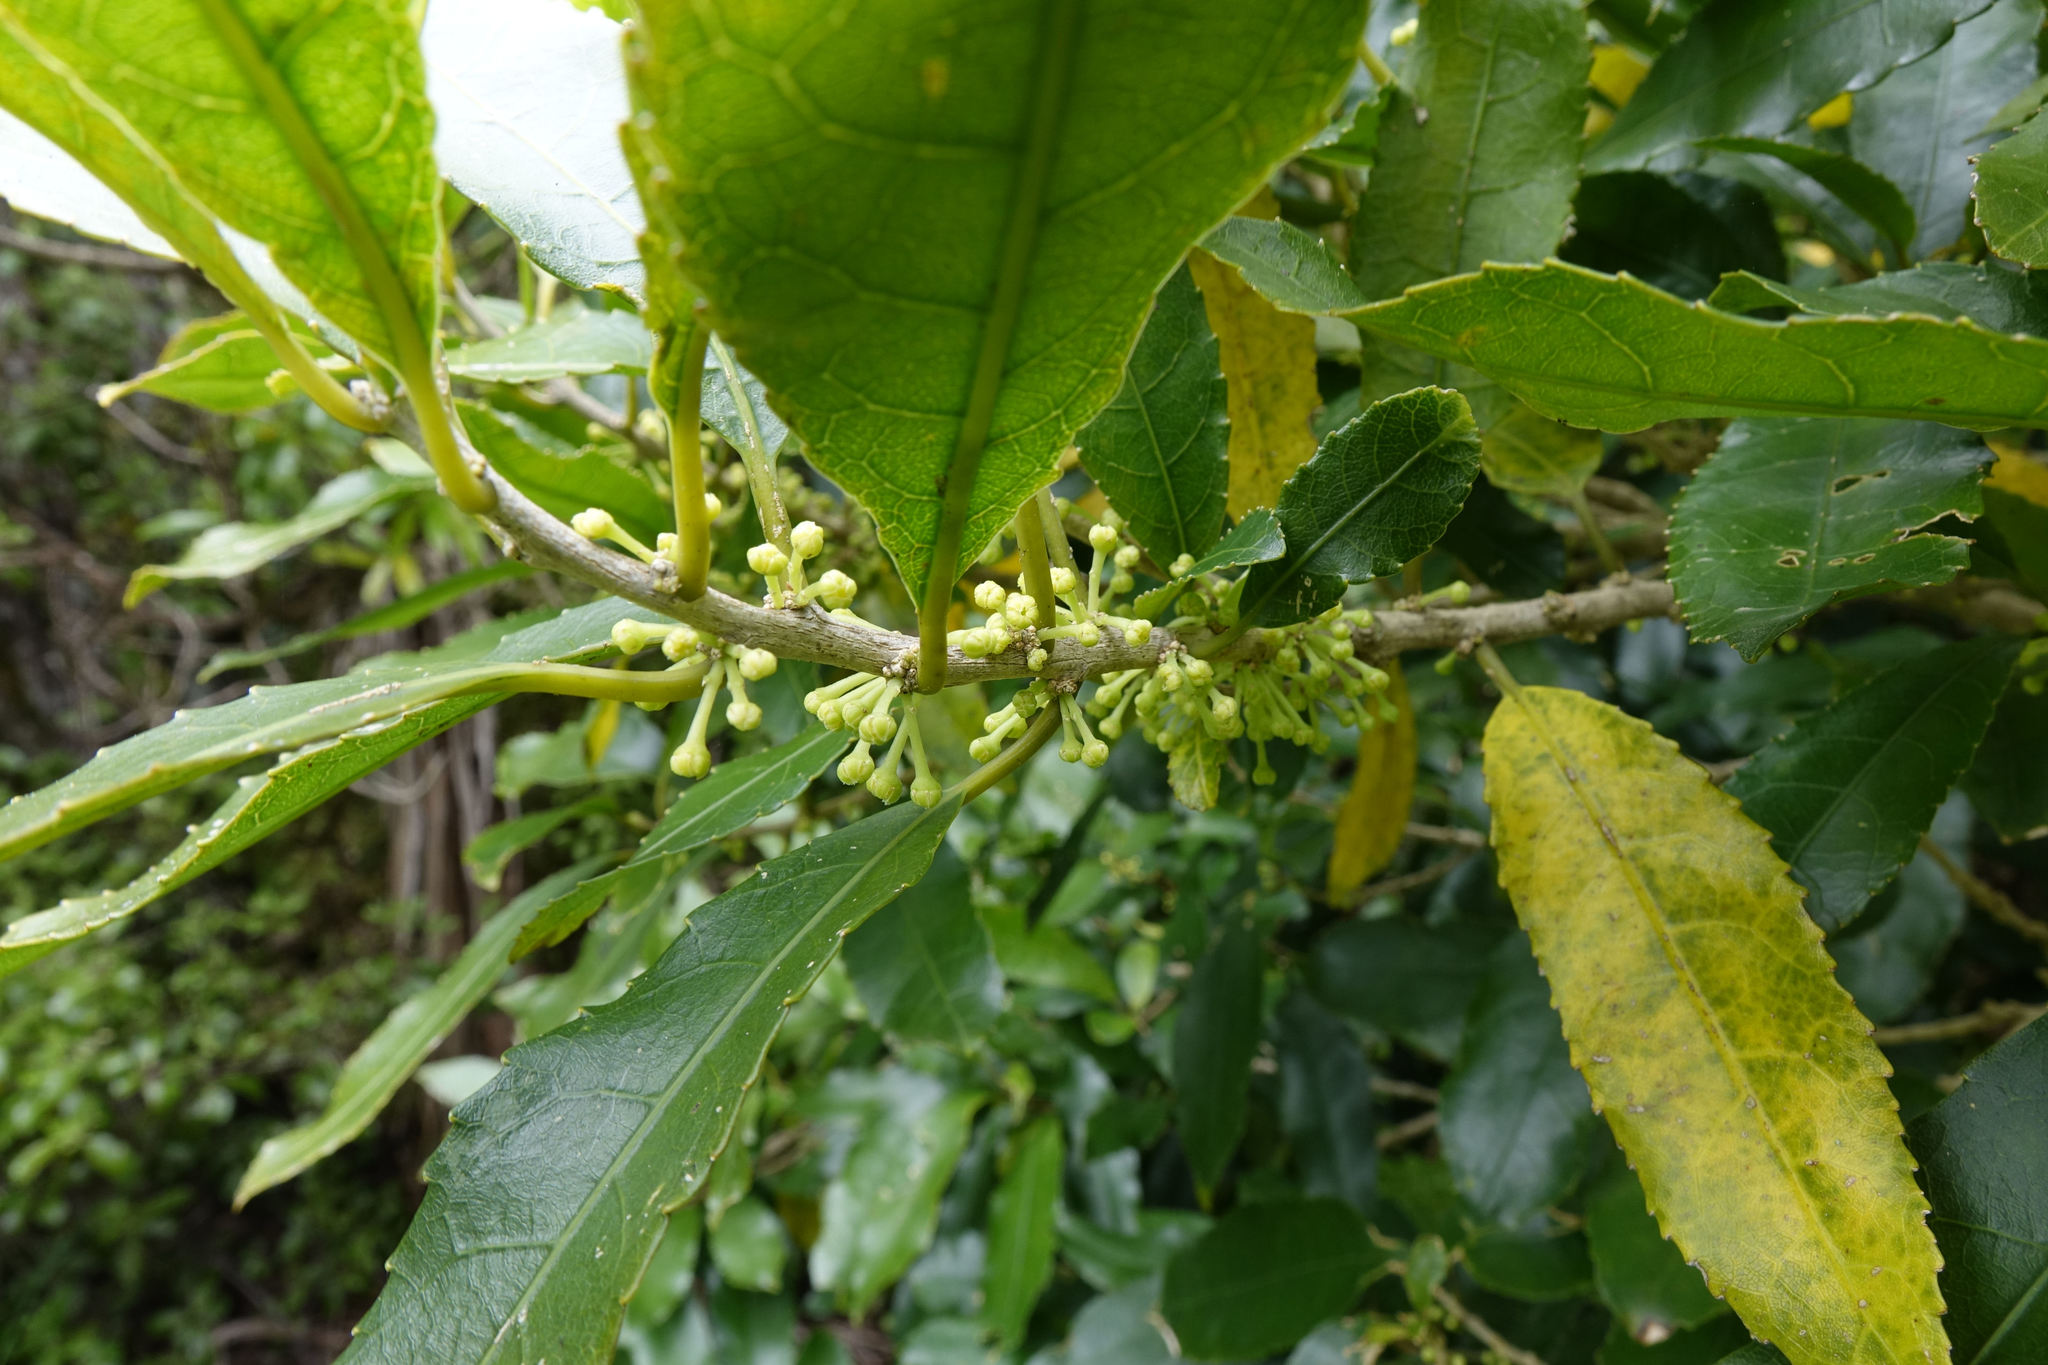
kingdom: Plantae
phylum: Tracheophyta
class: Magnoliopsida
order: Malpighiales
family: Violaceae
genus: Melicytus
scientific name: Melicytus ramiflorus
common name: Mahoe
